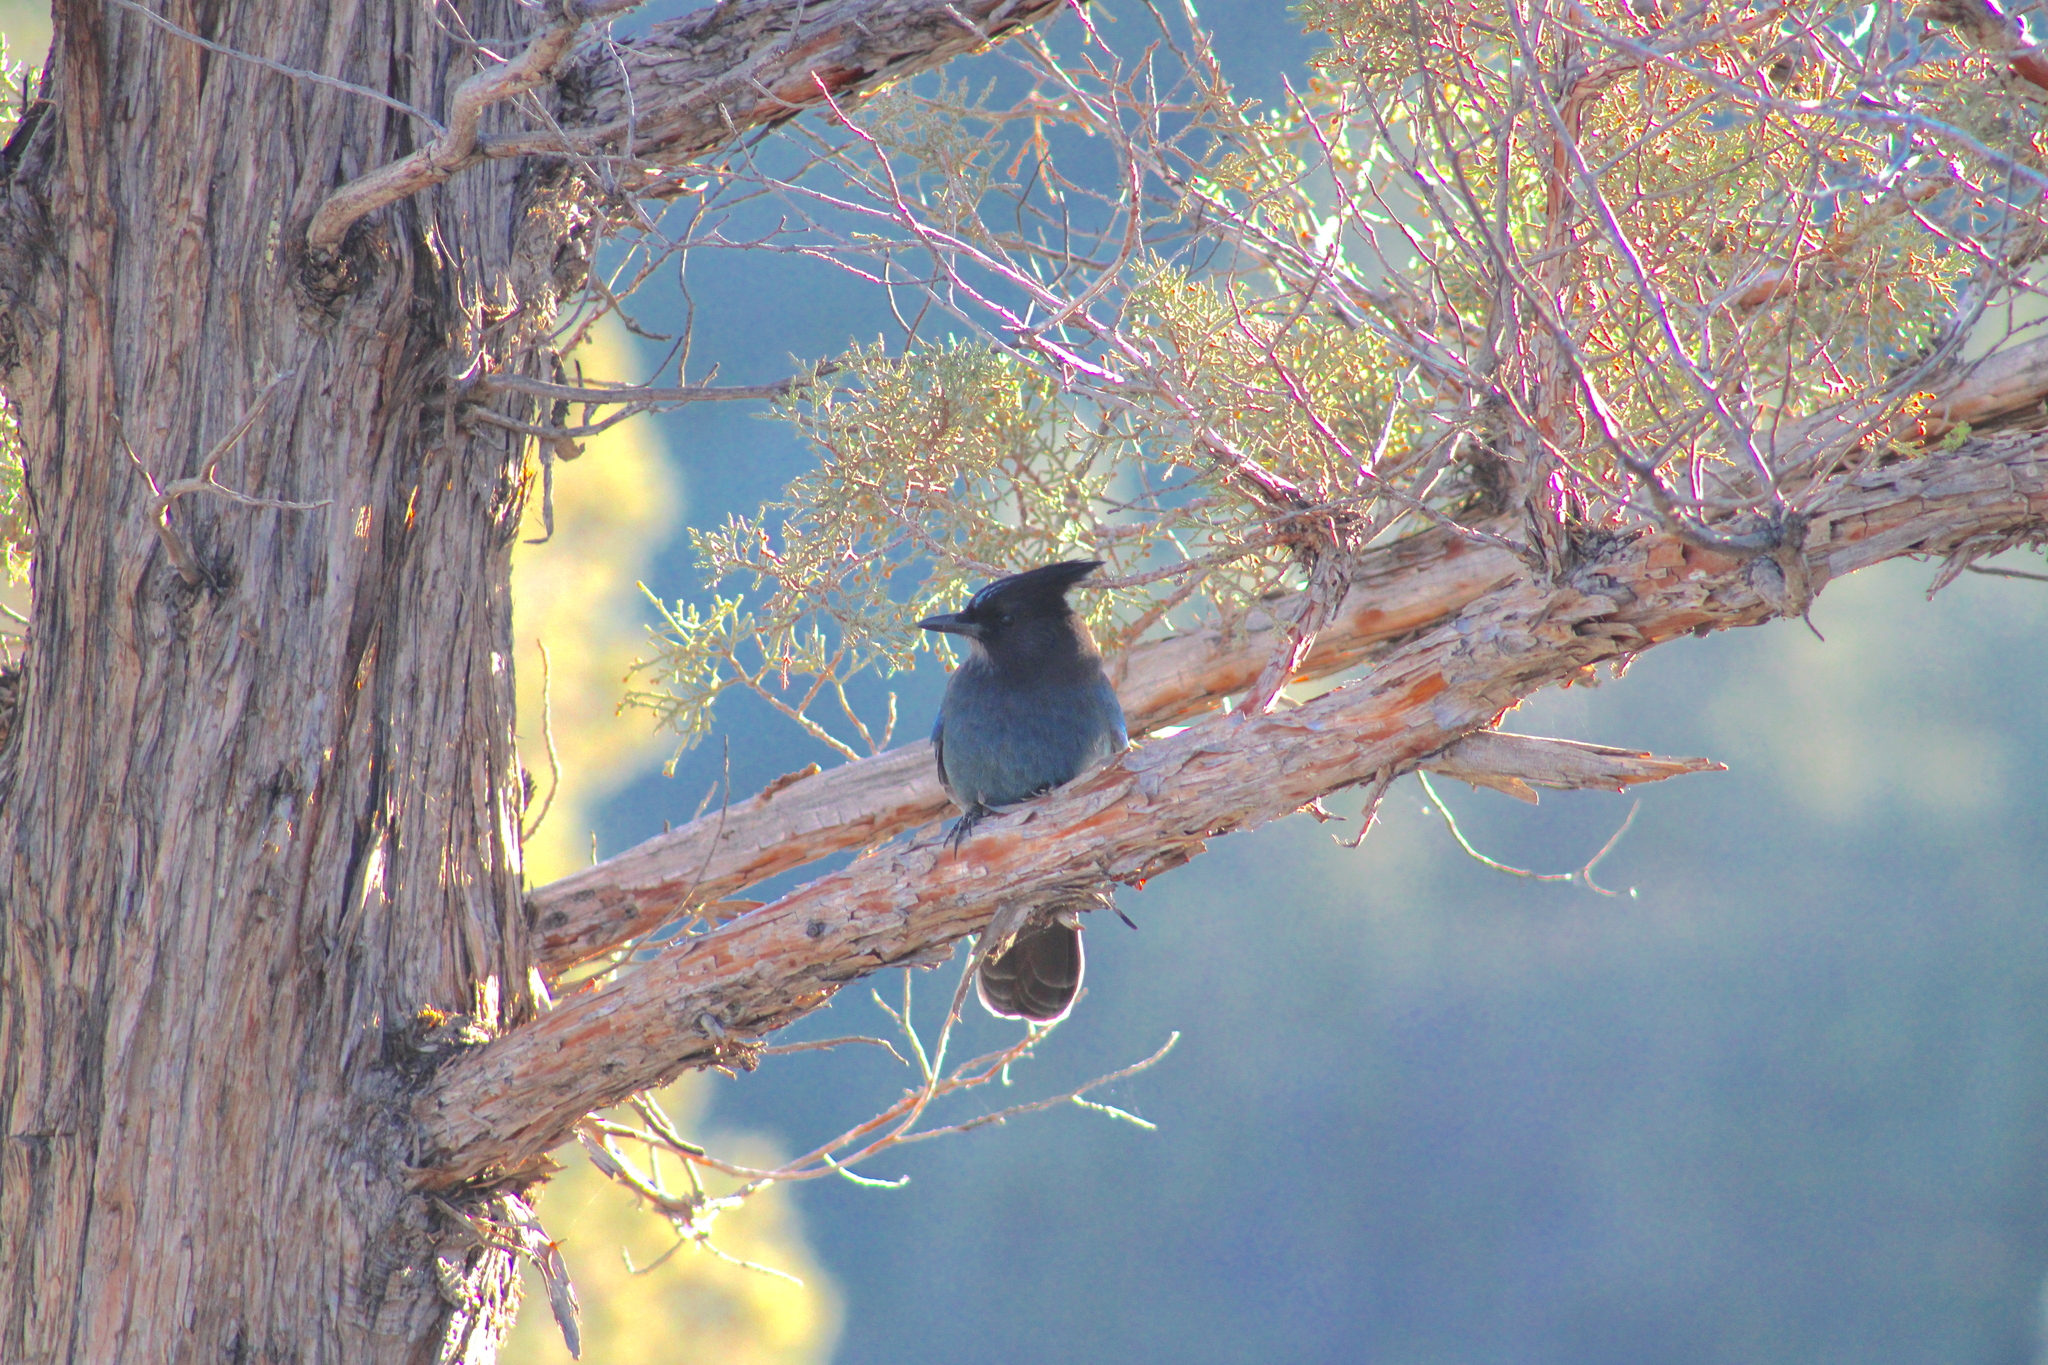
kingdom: Animalia
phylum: Chordata
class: Aves
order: Passeriformes
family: Corvidae
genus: Cyanocitta
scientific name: Cyanocitta stelleri
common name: Steller's jay
